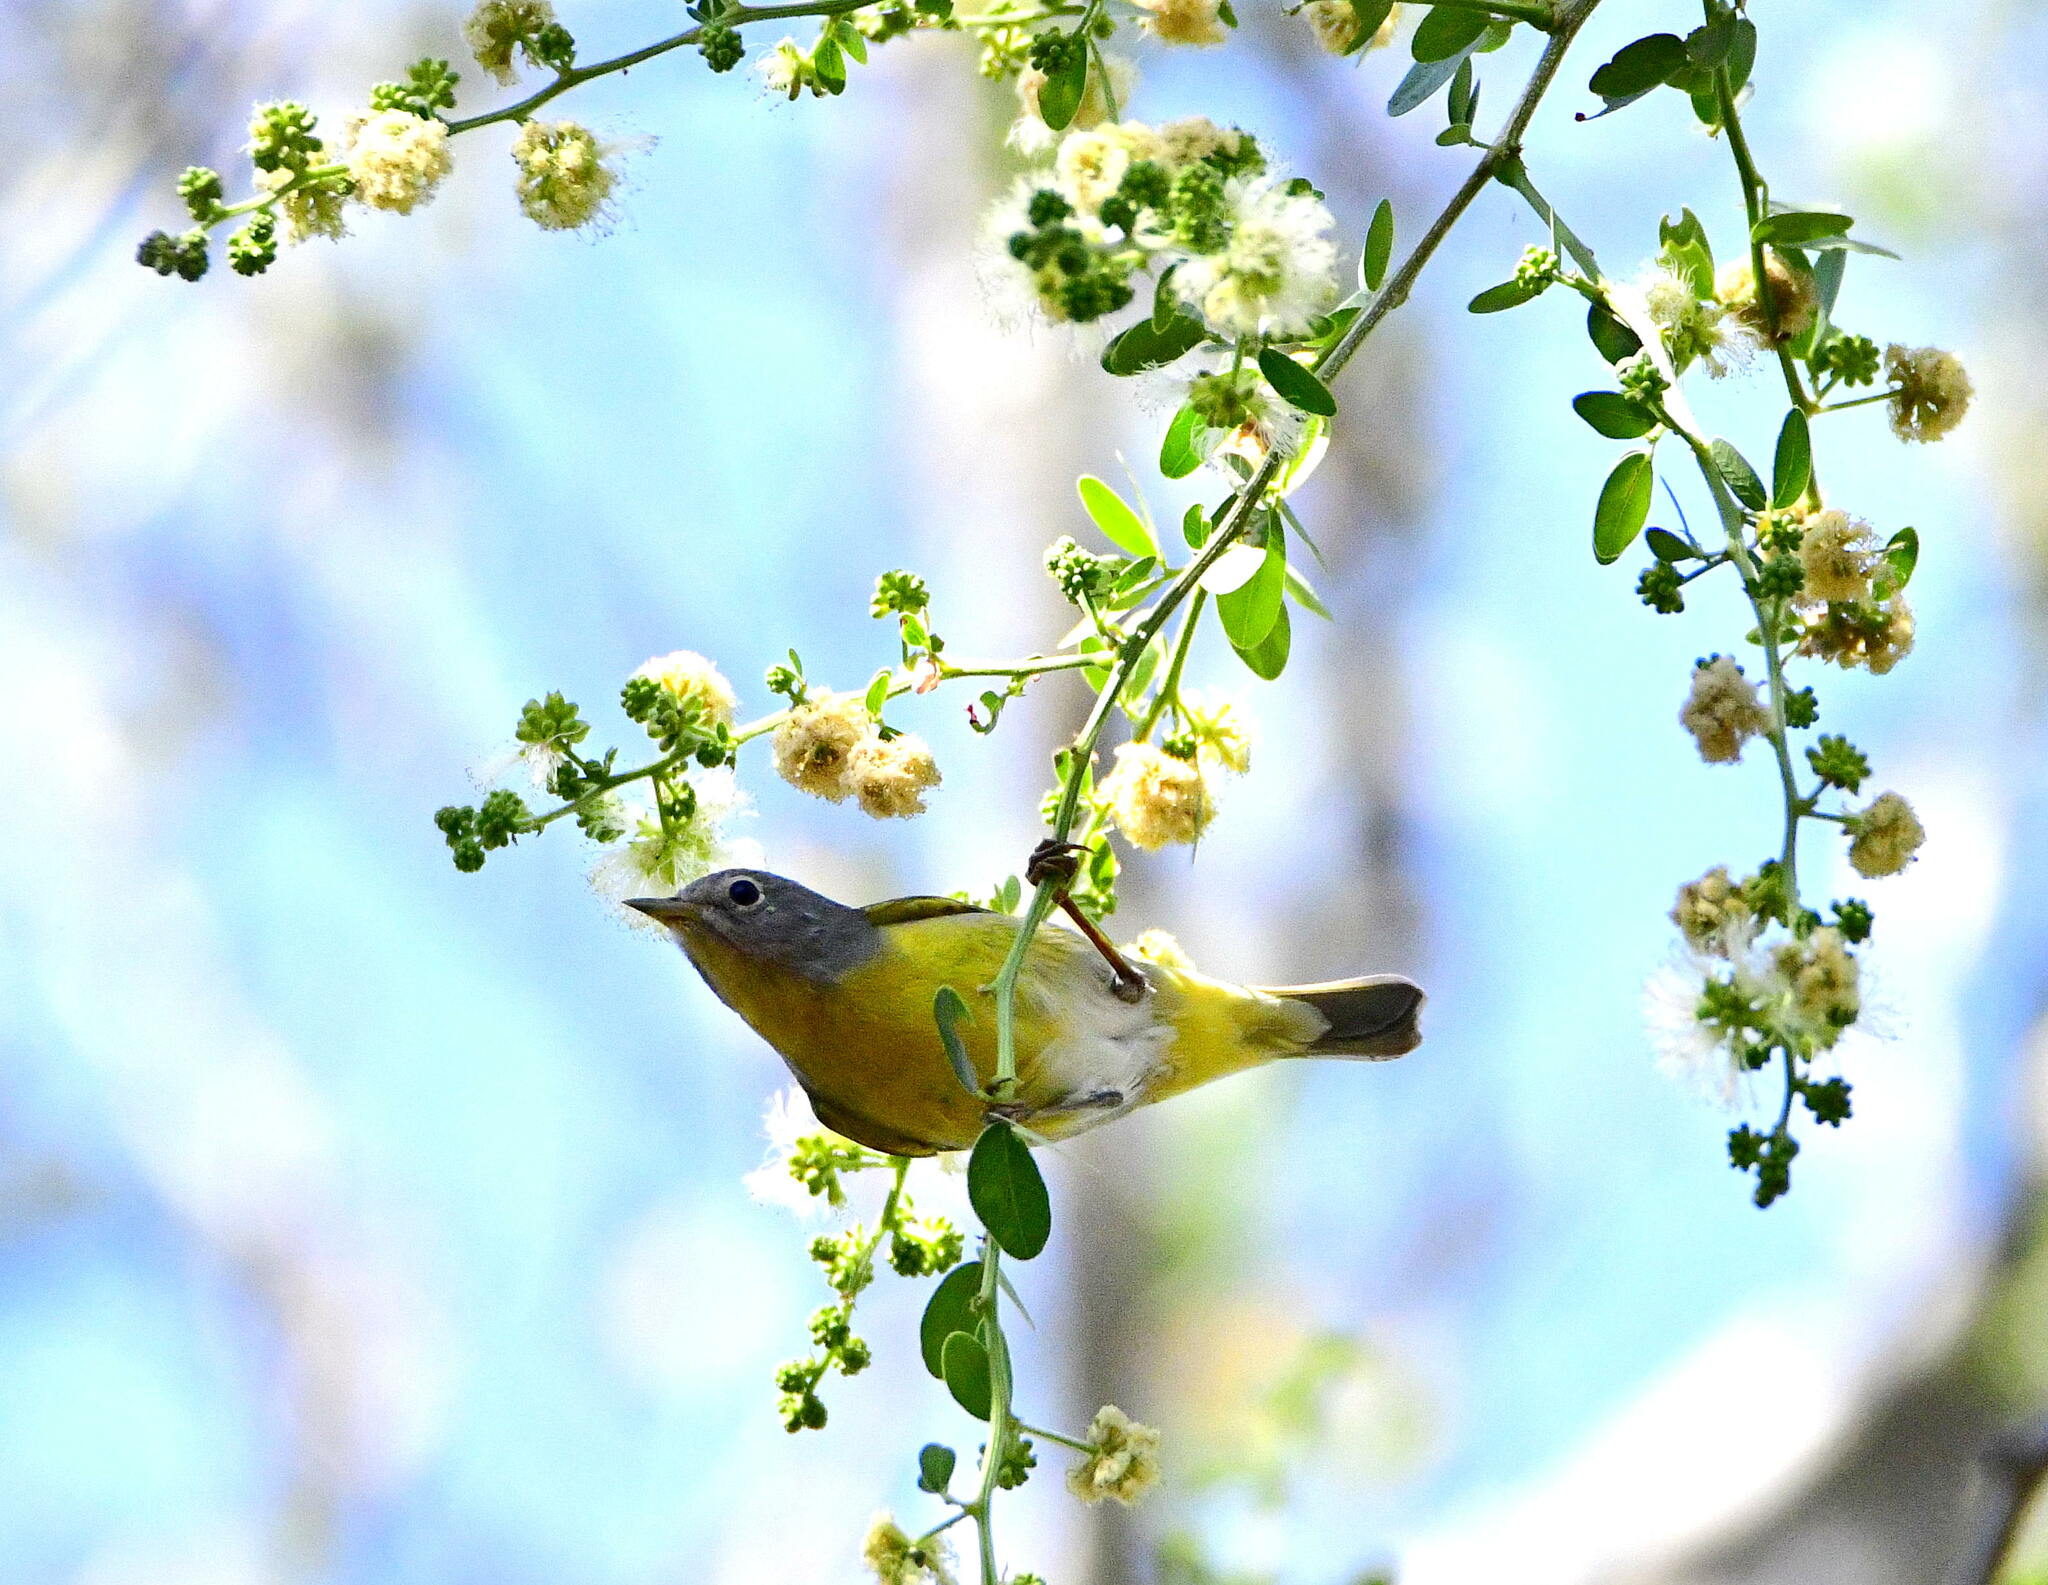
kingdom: Animalia
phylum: Chordata
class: Aves
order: Passeriformes
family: Parulidae
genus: Leiothlypis
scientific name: Leiothlypis ruficapilla
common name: Nashville warbler
